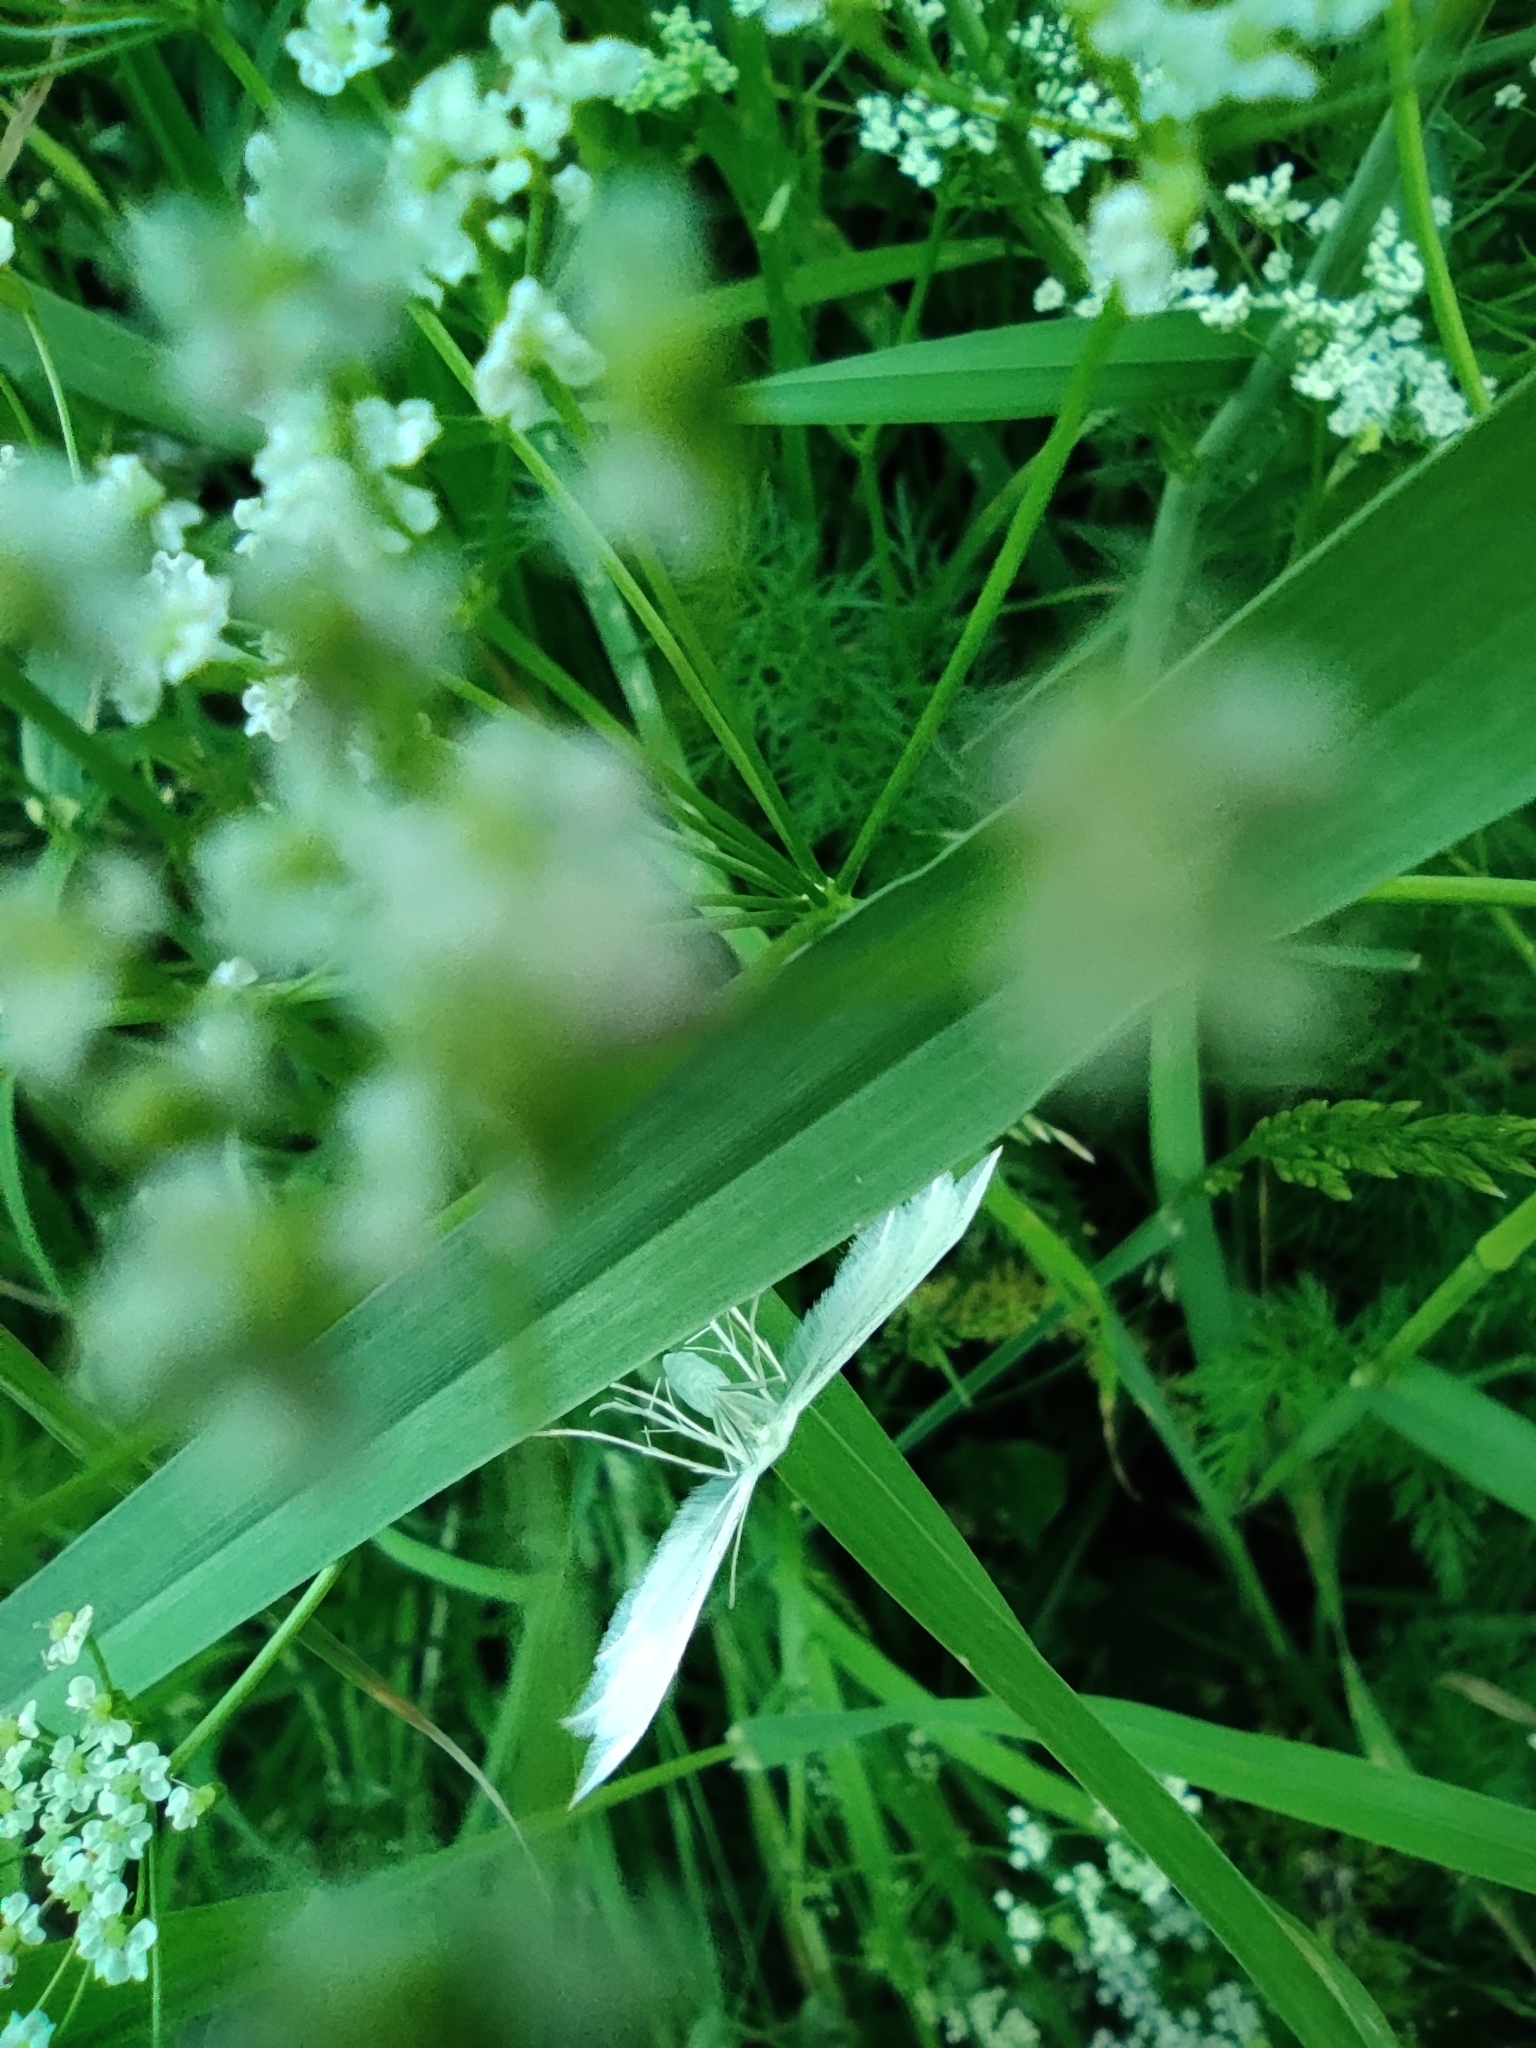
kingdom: Animalia
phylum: Arthropoda
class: Insecta
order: Lepidoptera
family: Pterophoridae
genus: Pterophorus
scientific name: Pterophorus pentadactyla
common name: White plume moth
